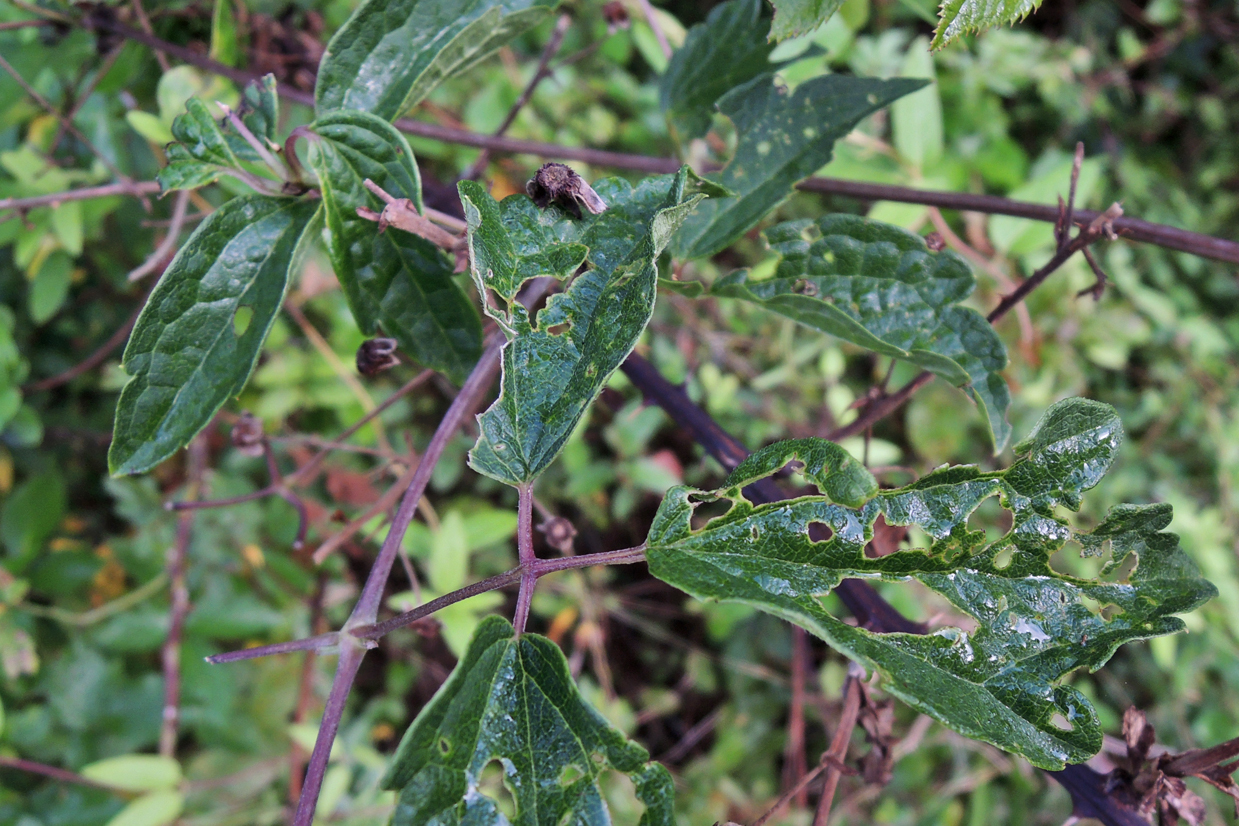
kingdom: Plantae
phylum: Tracheophyta
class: Magnoliopsida
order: Ranunculales
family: Ranunculaceae
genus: Clematis
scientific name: Clematis virginiana
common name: Virgin's-bower
